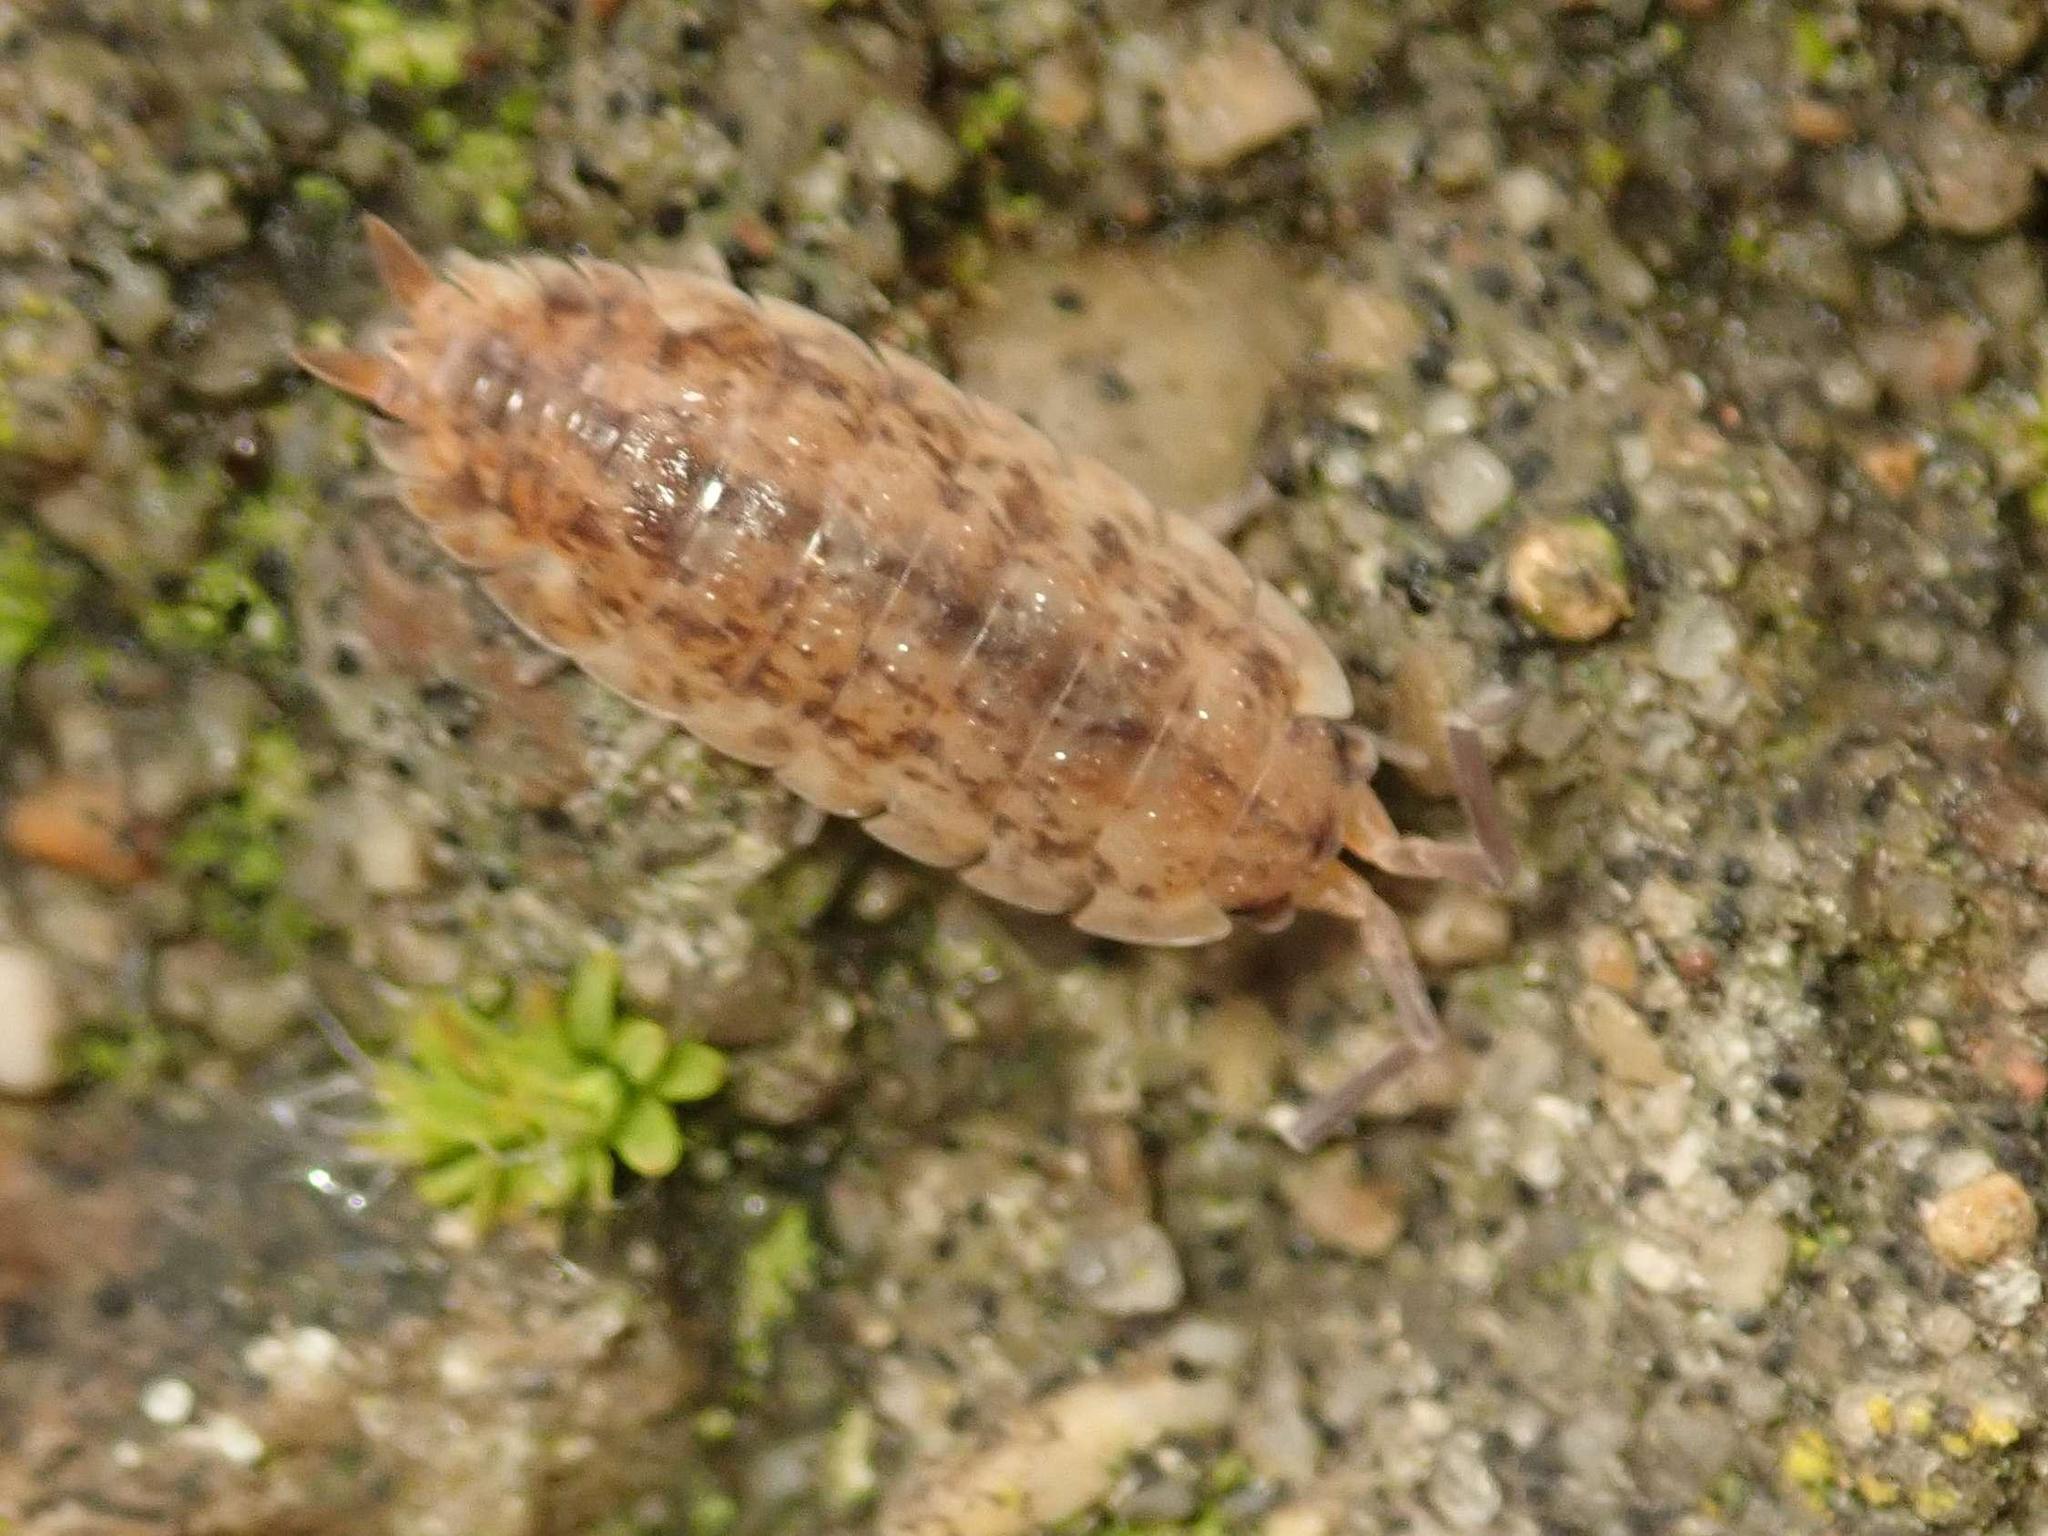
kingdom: Animalia
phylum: Arthropoda
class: Malacostraca
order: Isopoda
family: Porcellionidae
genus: Porcellio
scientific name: Porcellio scaber
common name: Common rough woodlouse
